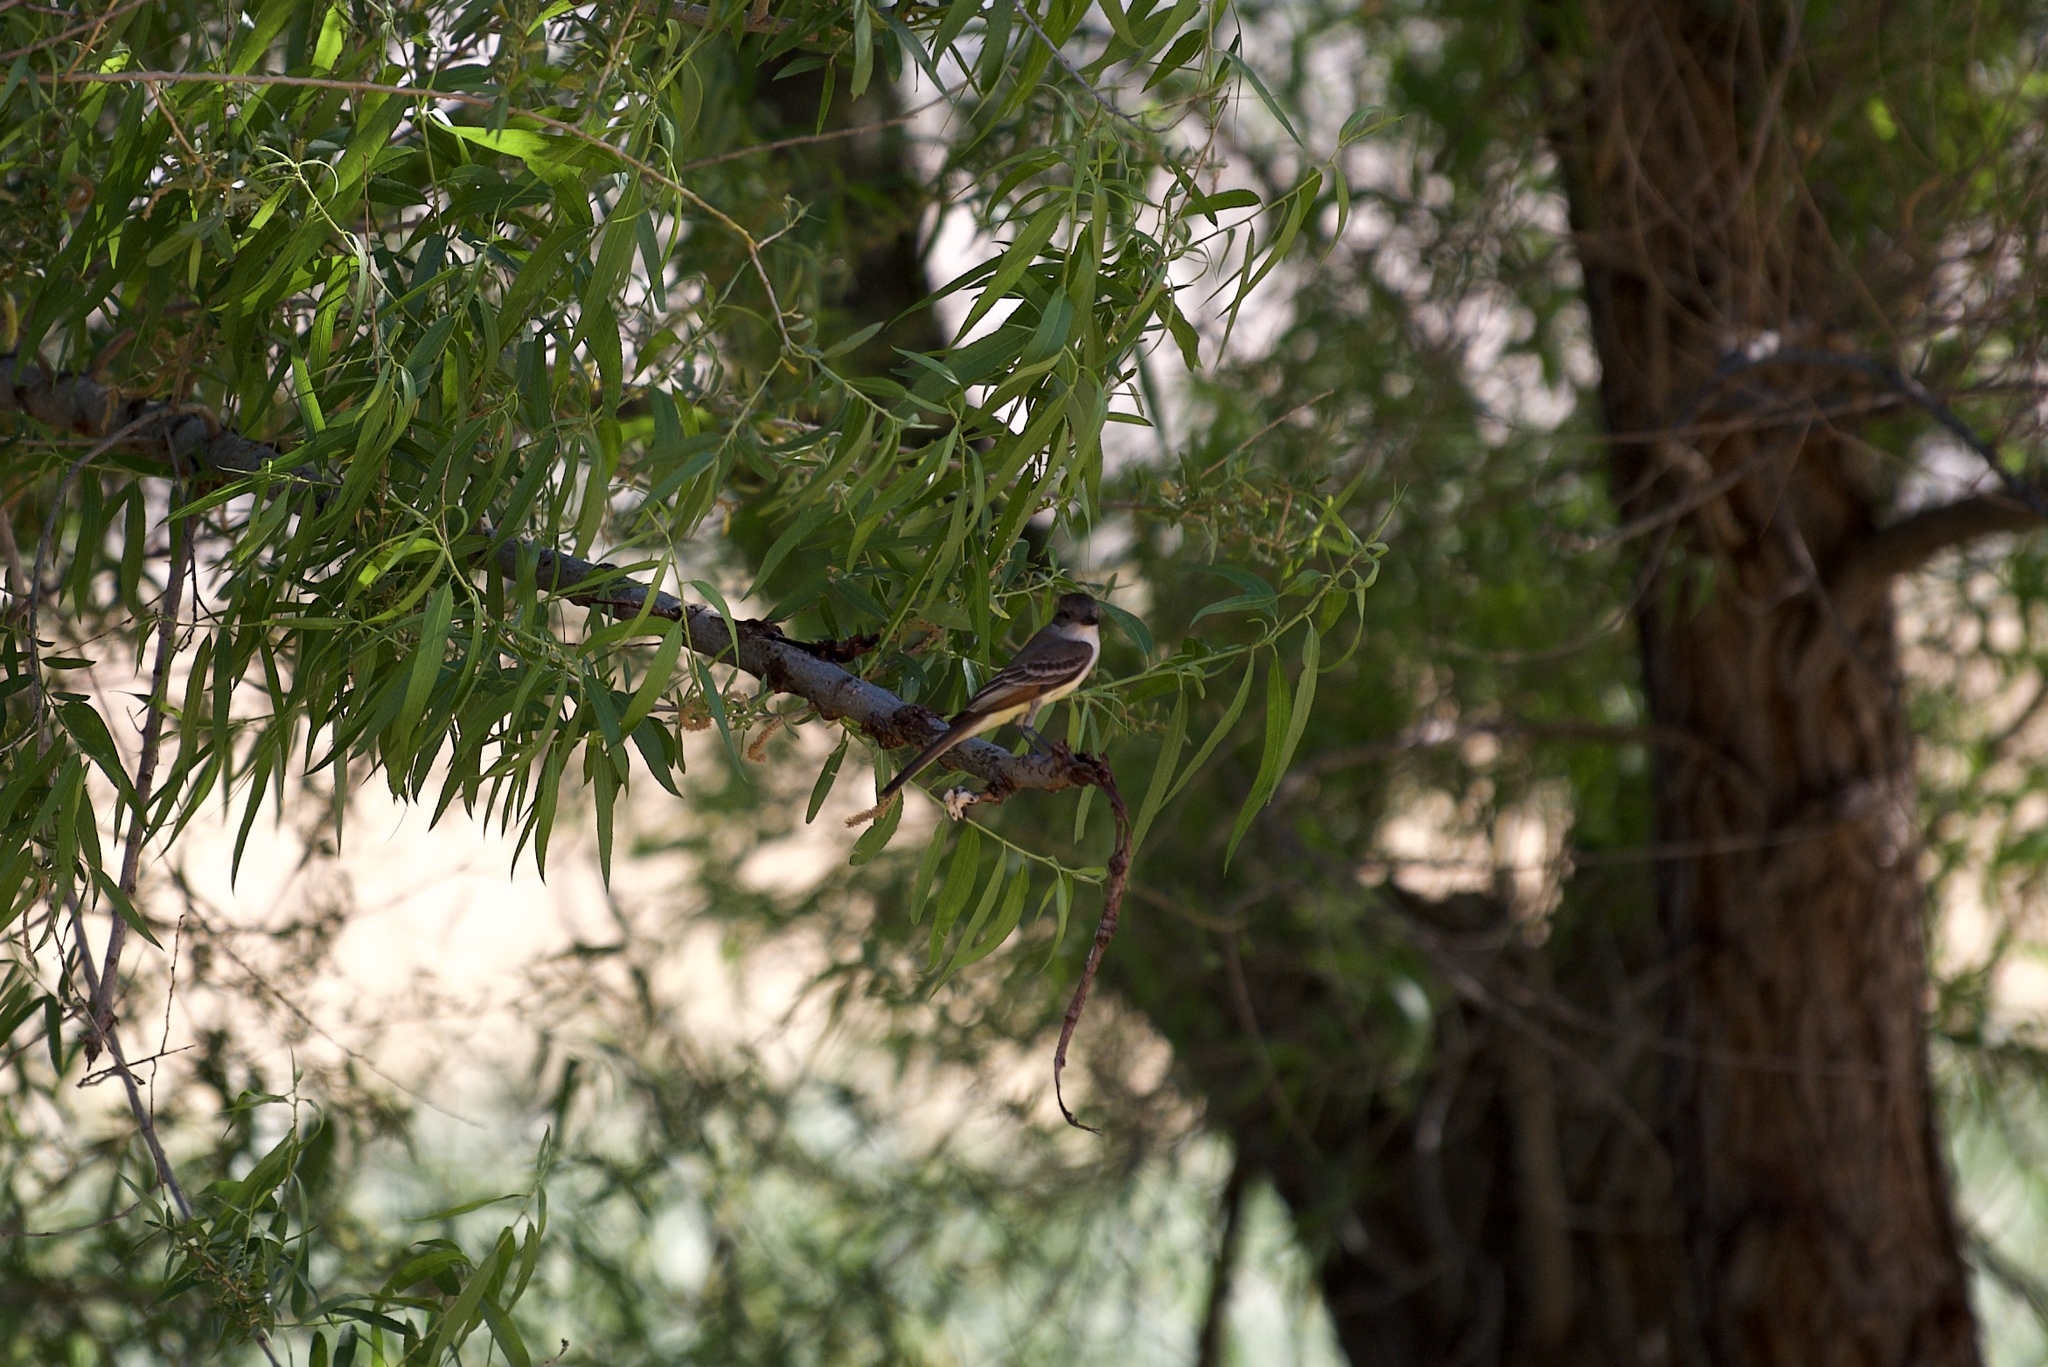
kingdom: Animalia
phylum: Chordata
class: Aves
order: Passeriformes
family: Tyrannidae
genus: Myiarchus
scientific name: Myiarchus cinerascens
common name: Ash-throated flycatcher
